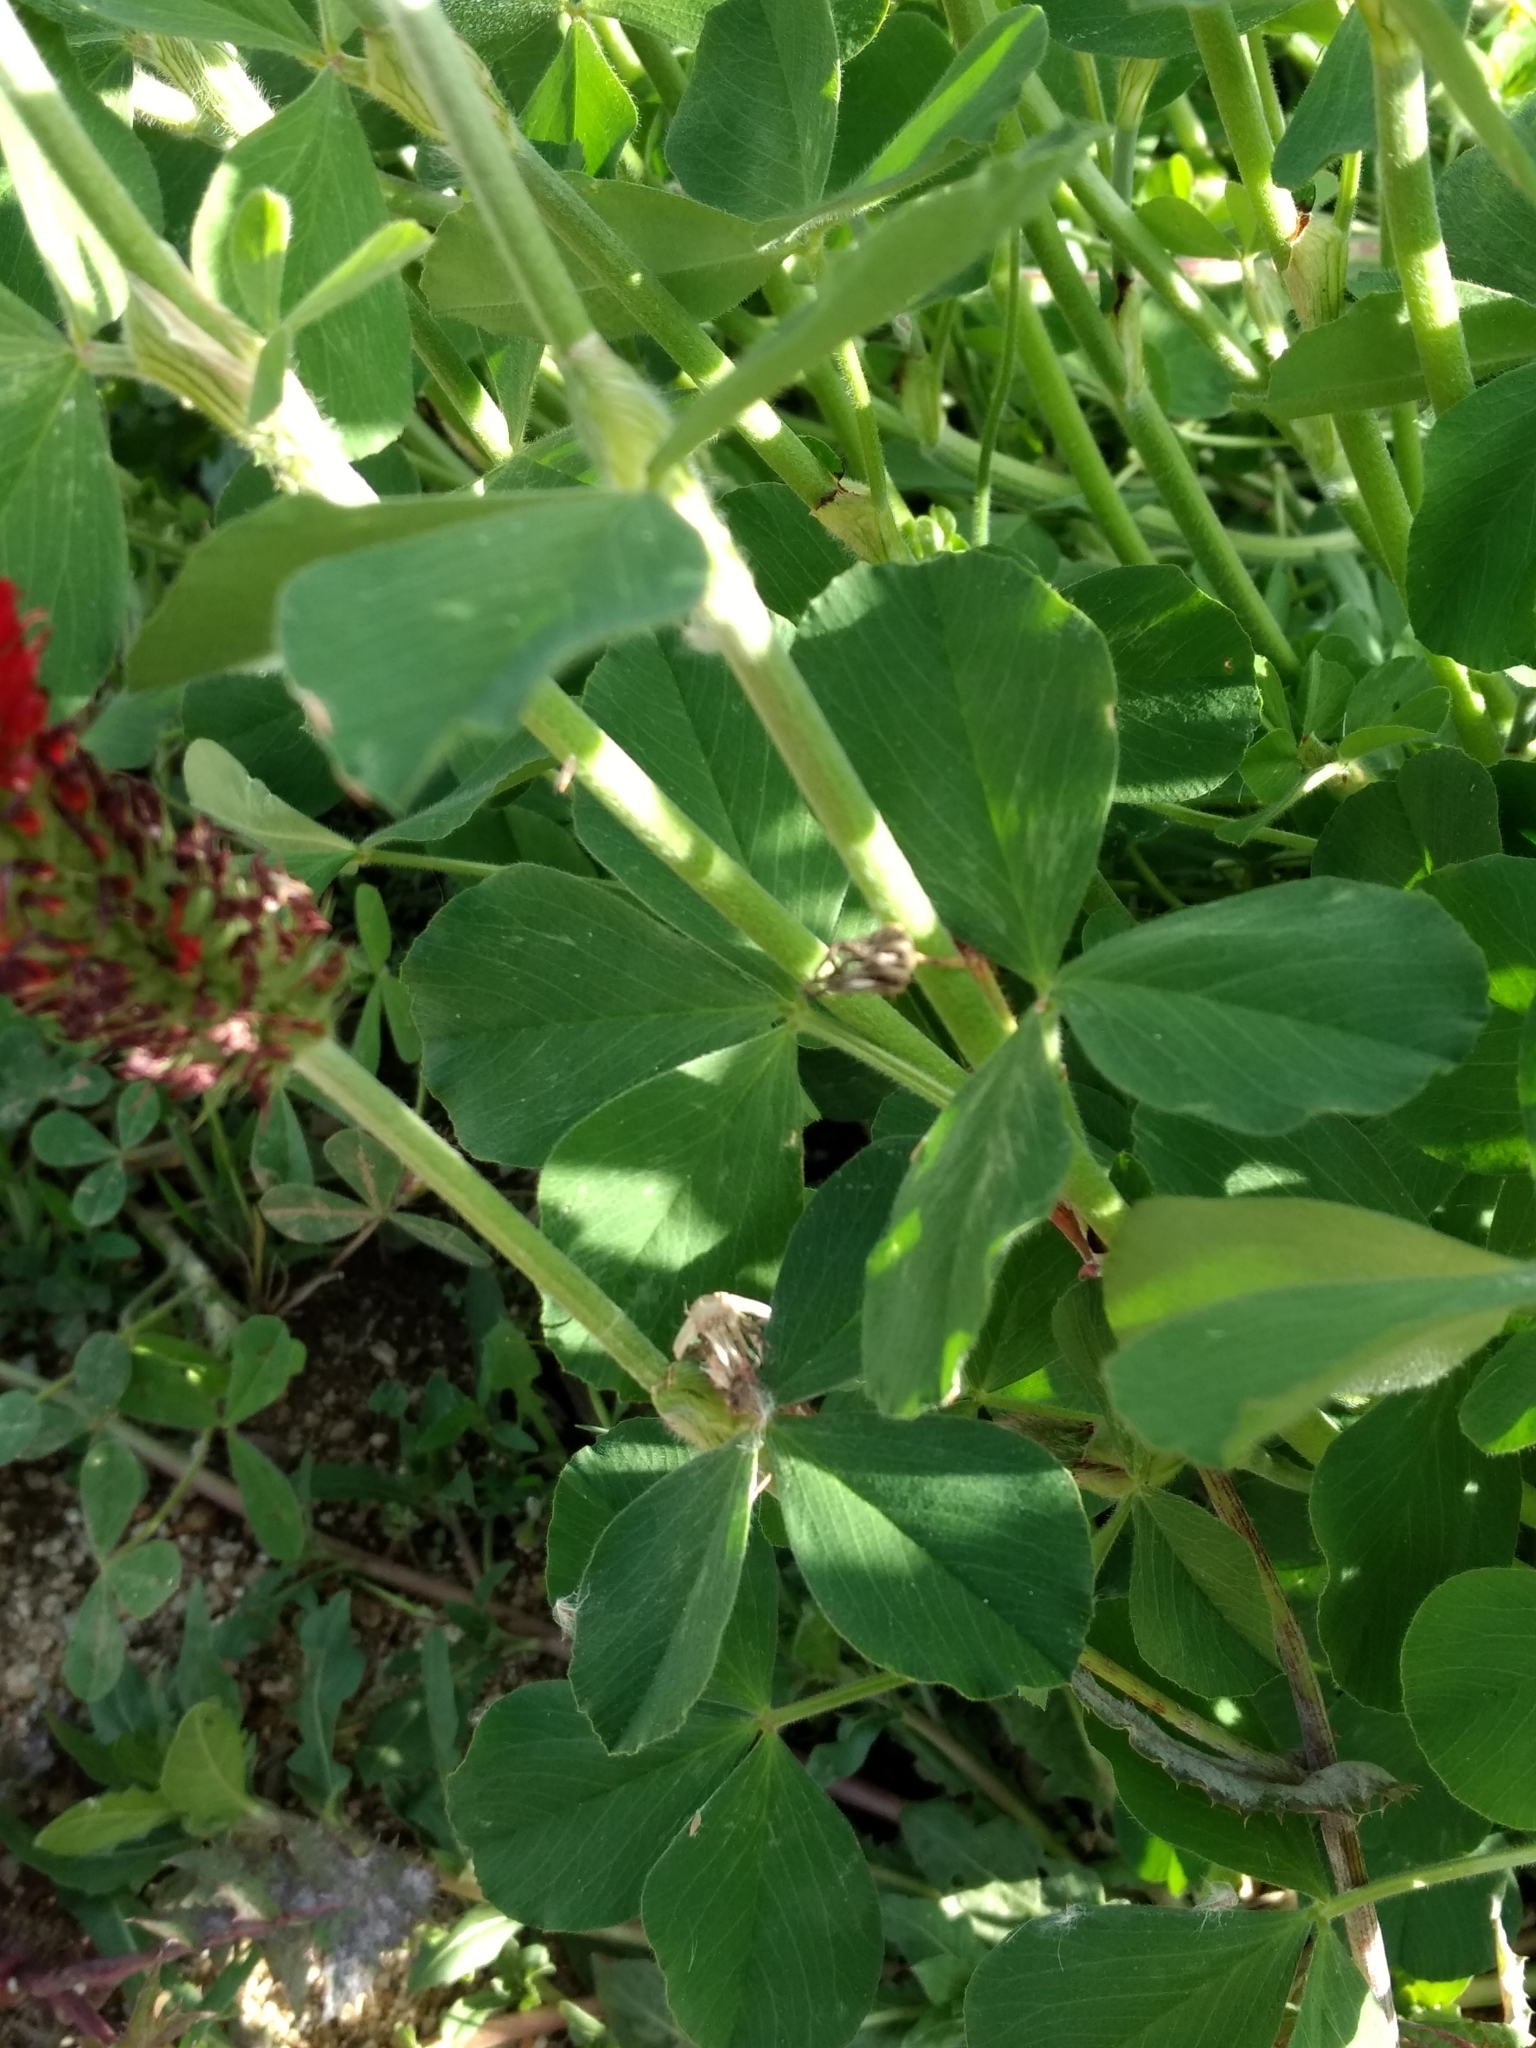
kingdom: Plantae
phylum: Tracheophyta
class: Magnoliopsida
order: Fabales
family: Fabaceae
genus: Trifolium
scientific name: Trifolium incarnatum
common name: Crimson clover
